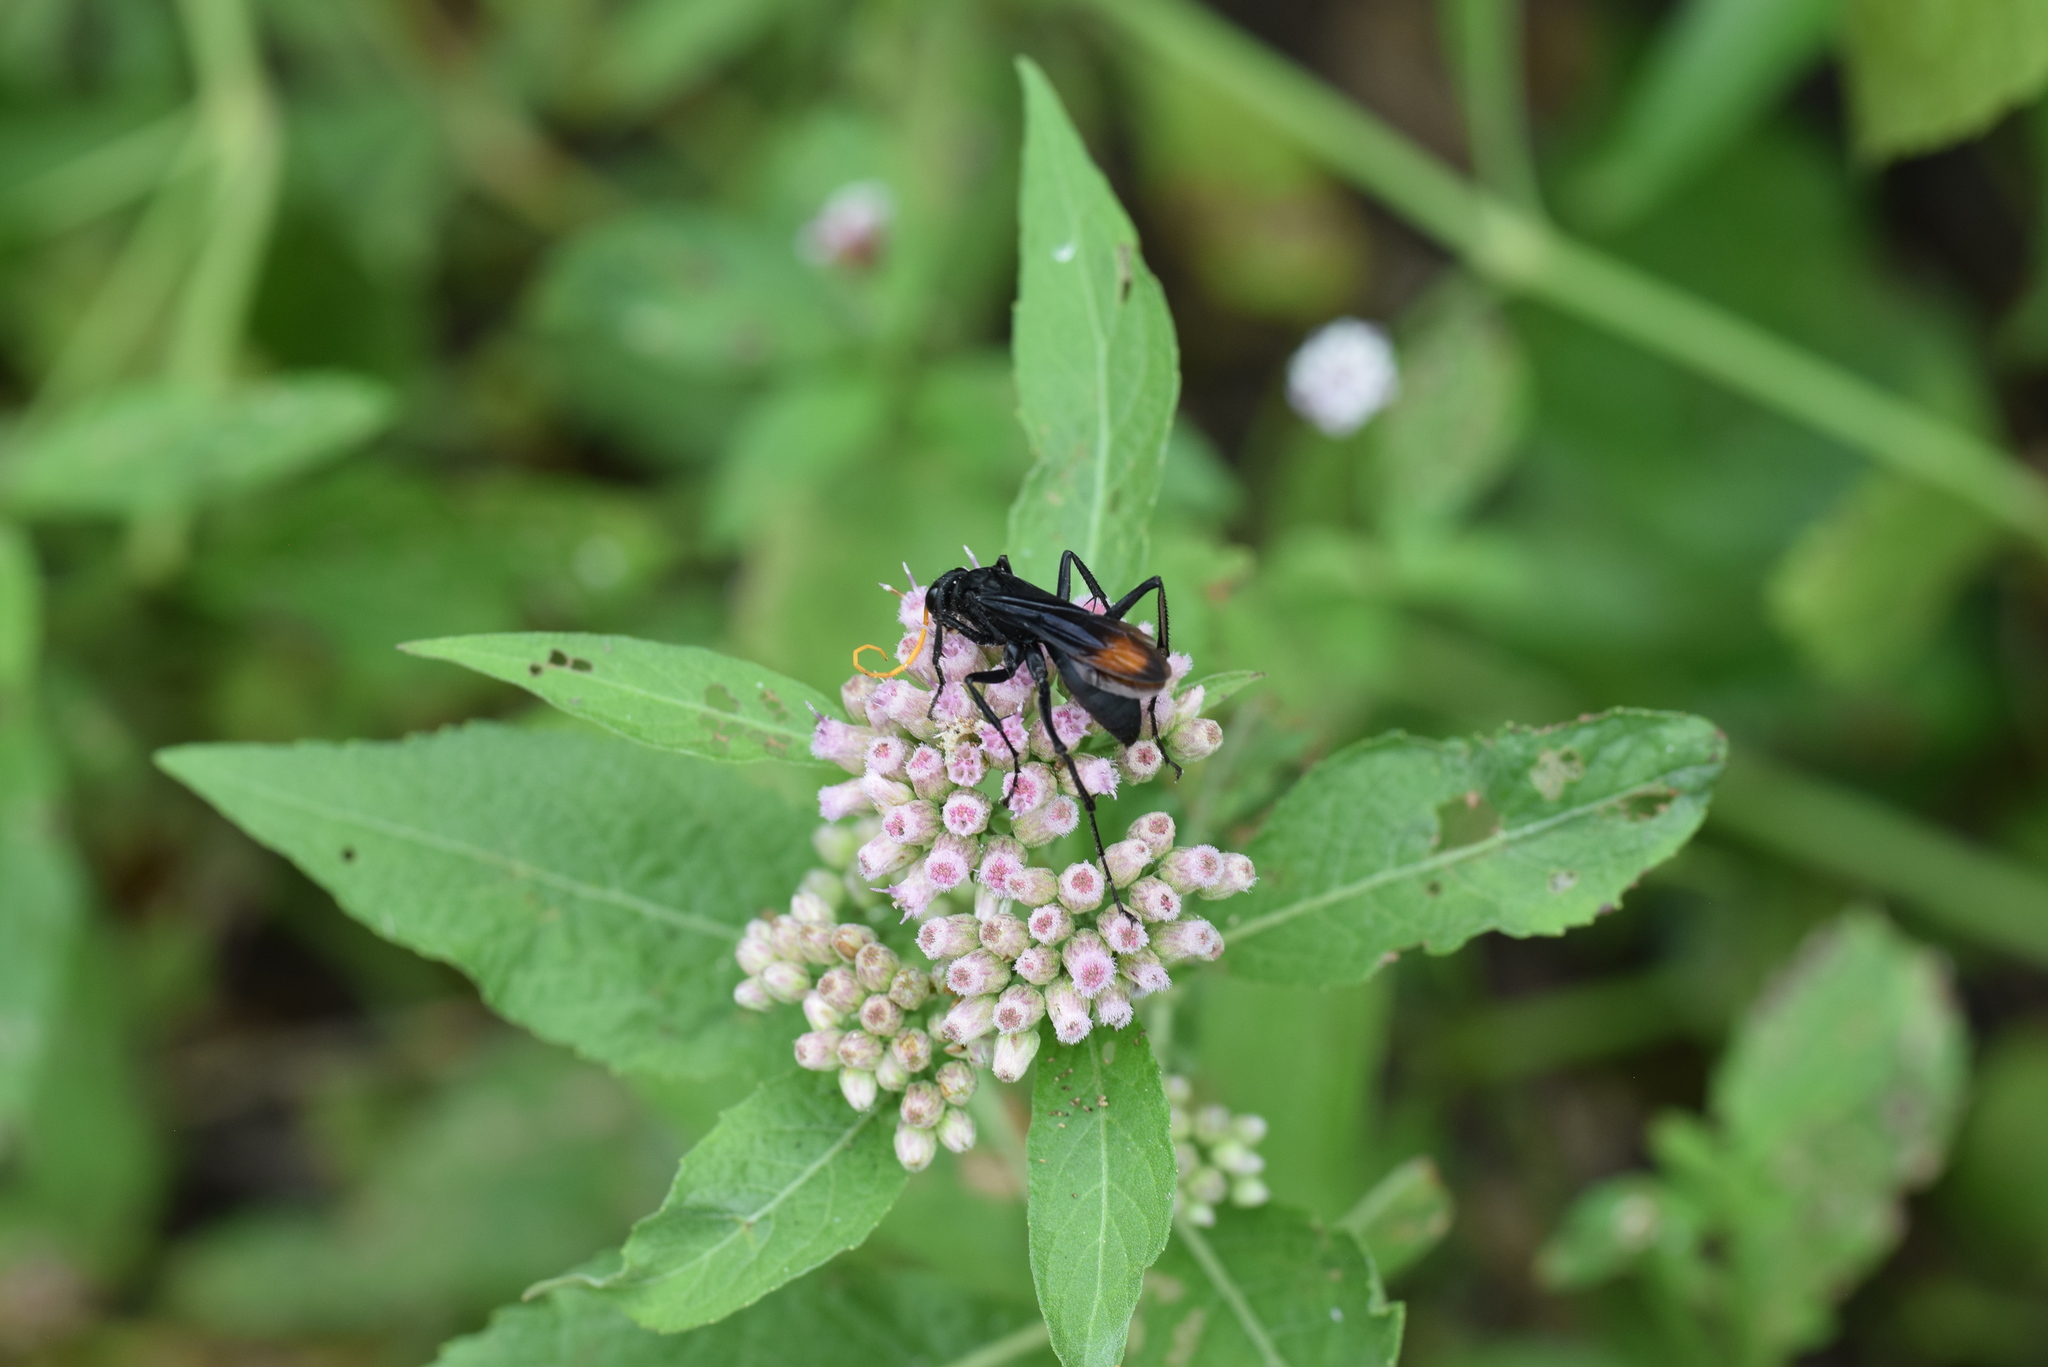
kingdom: Animalia
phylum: Arthropoda
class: Insecta
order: Hymenoptera
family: Pompilidae
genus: Entypus
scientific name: Entypus unifasciatus
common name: Eastern tawny-horned spider wasp
